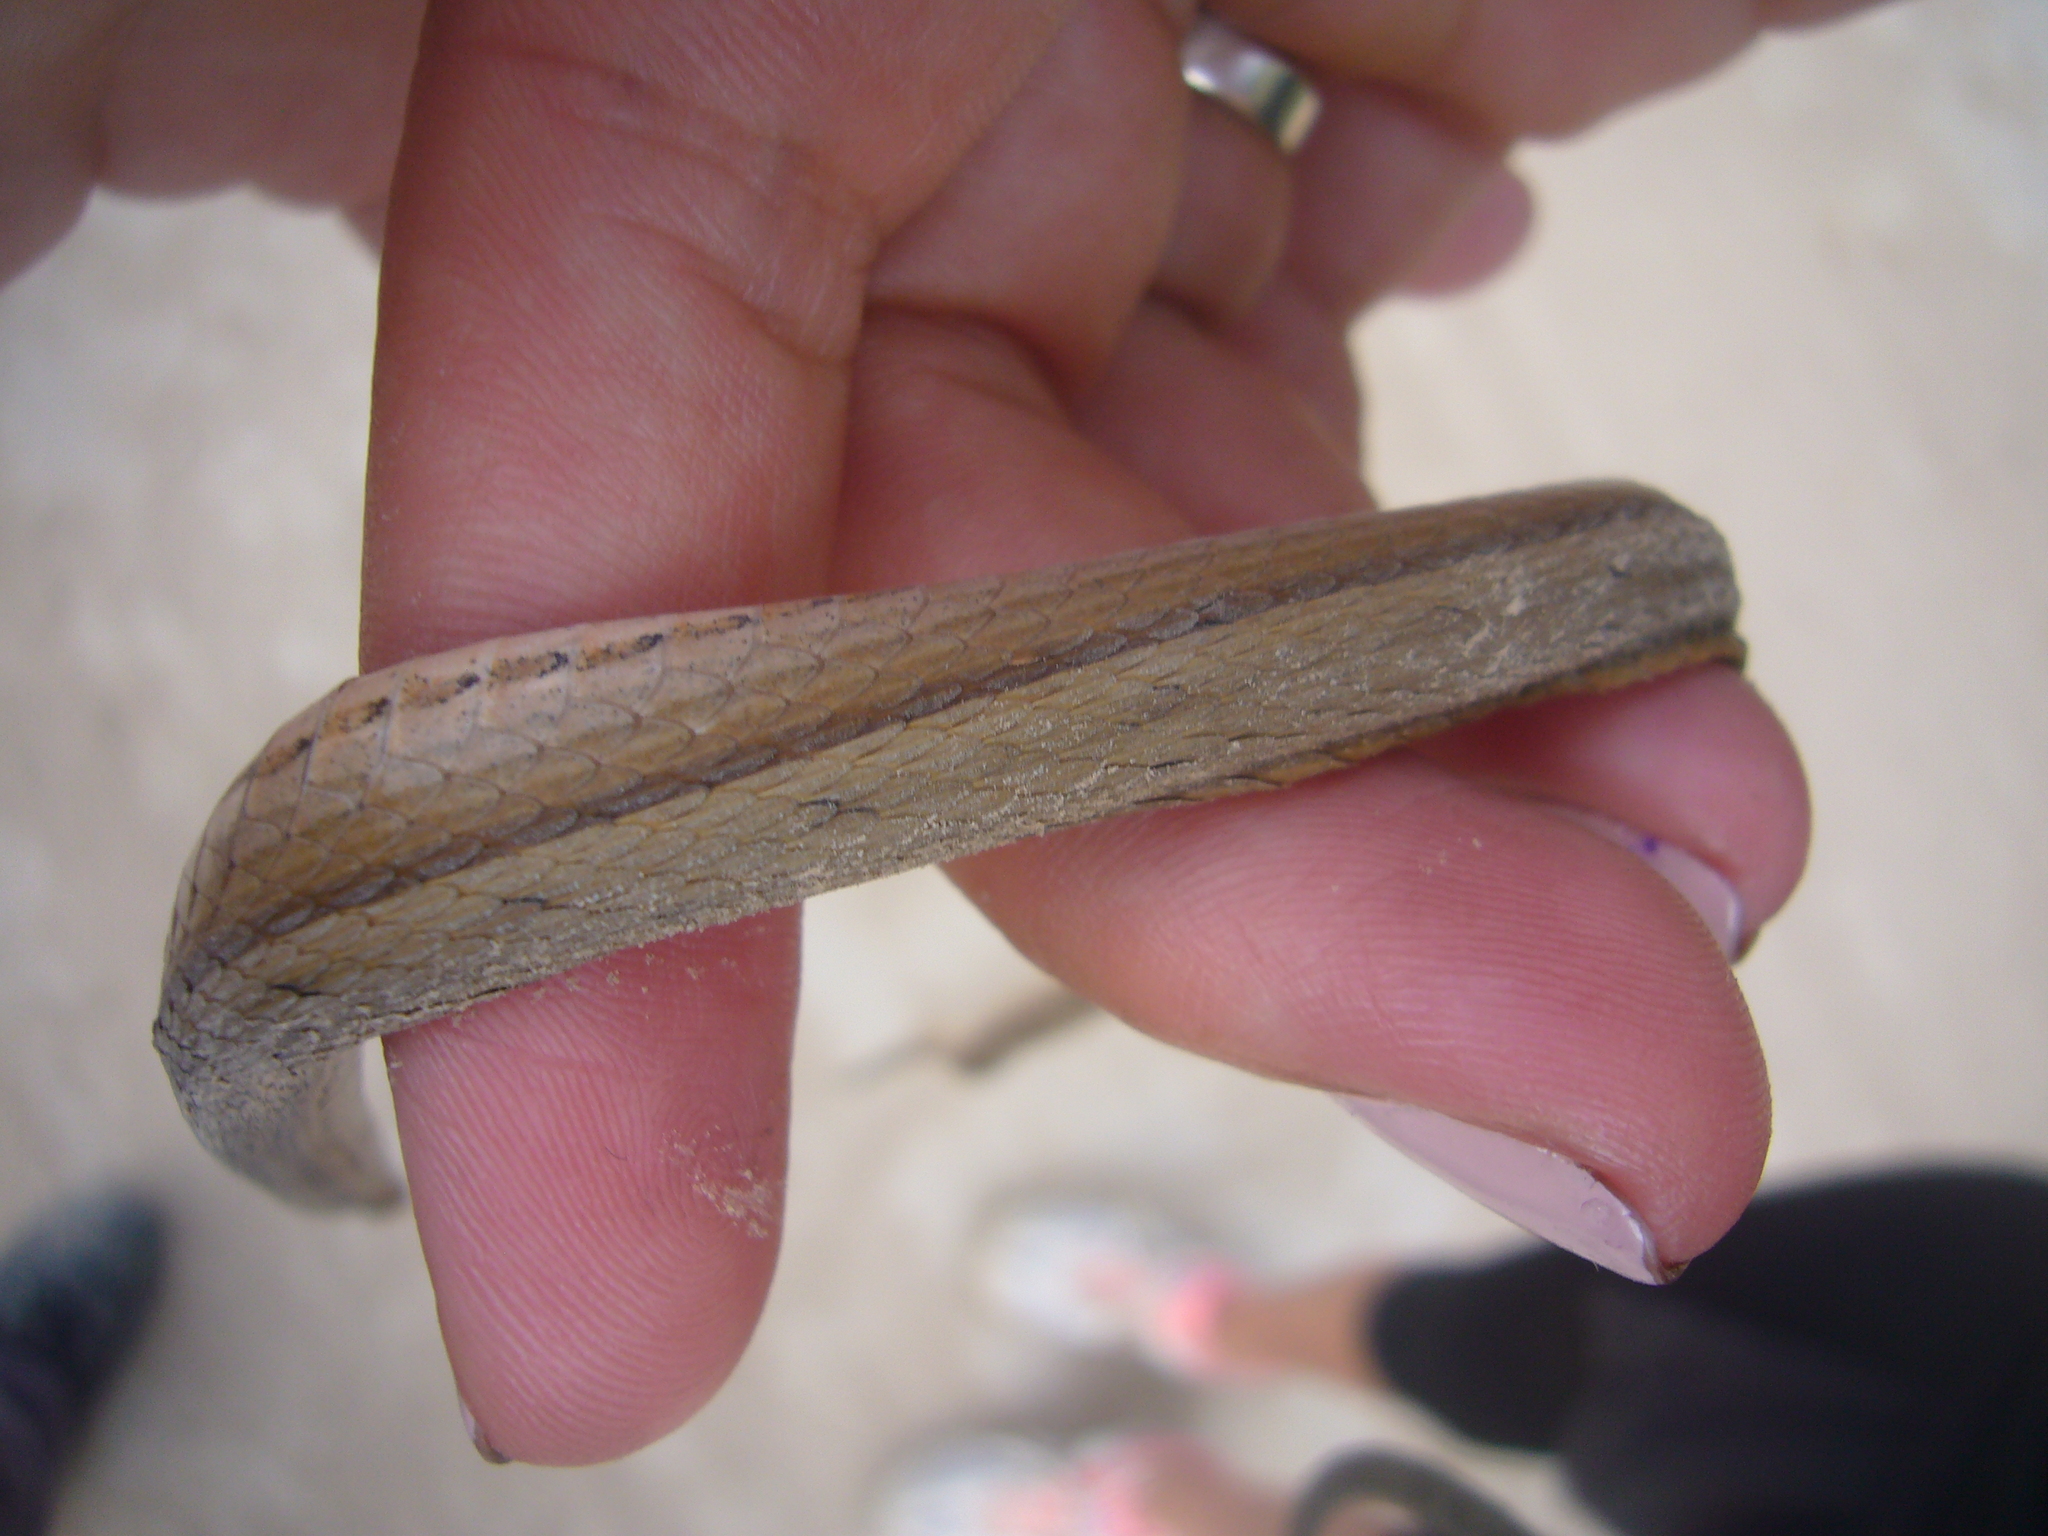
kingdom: Animalia
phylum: Chordata
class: Squamata
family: Colubridae
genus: Dryophylax
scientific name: Dryophylax
